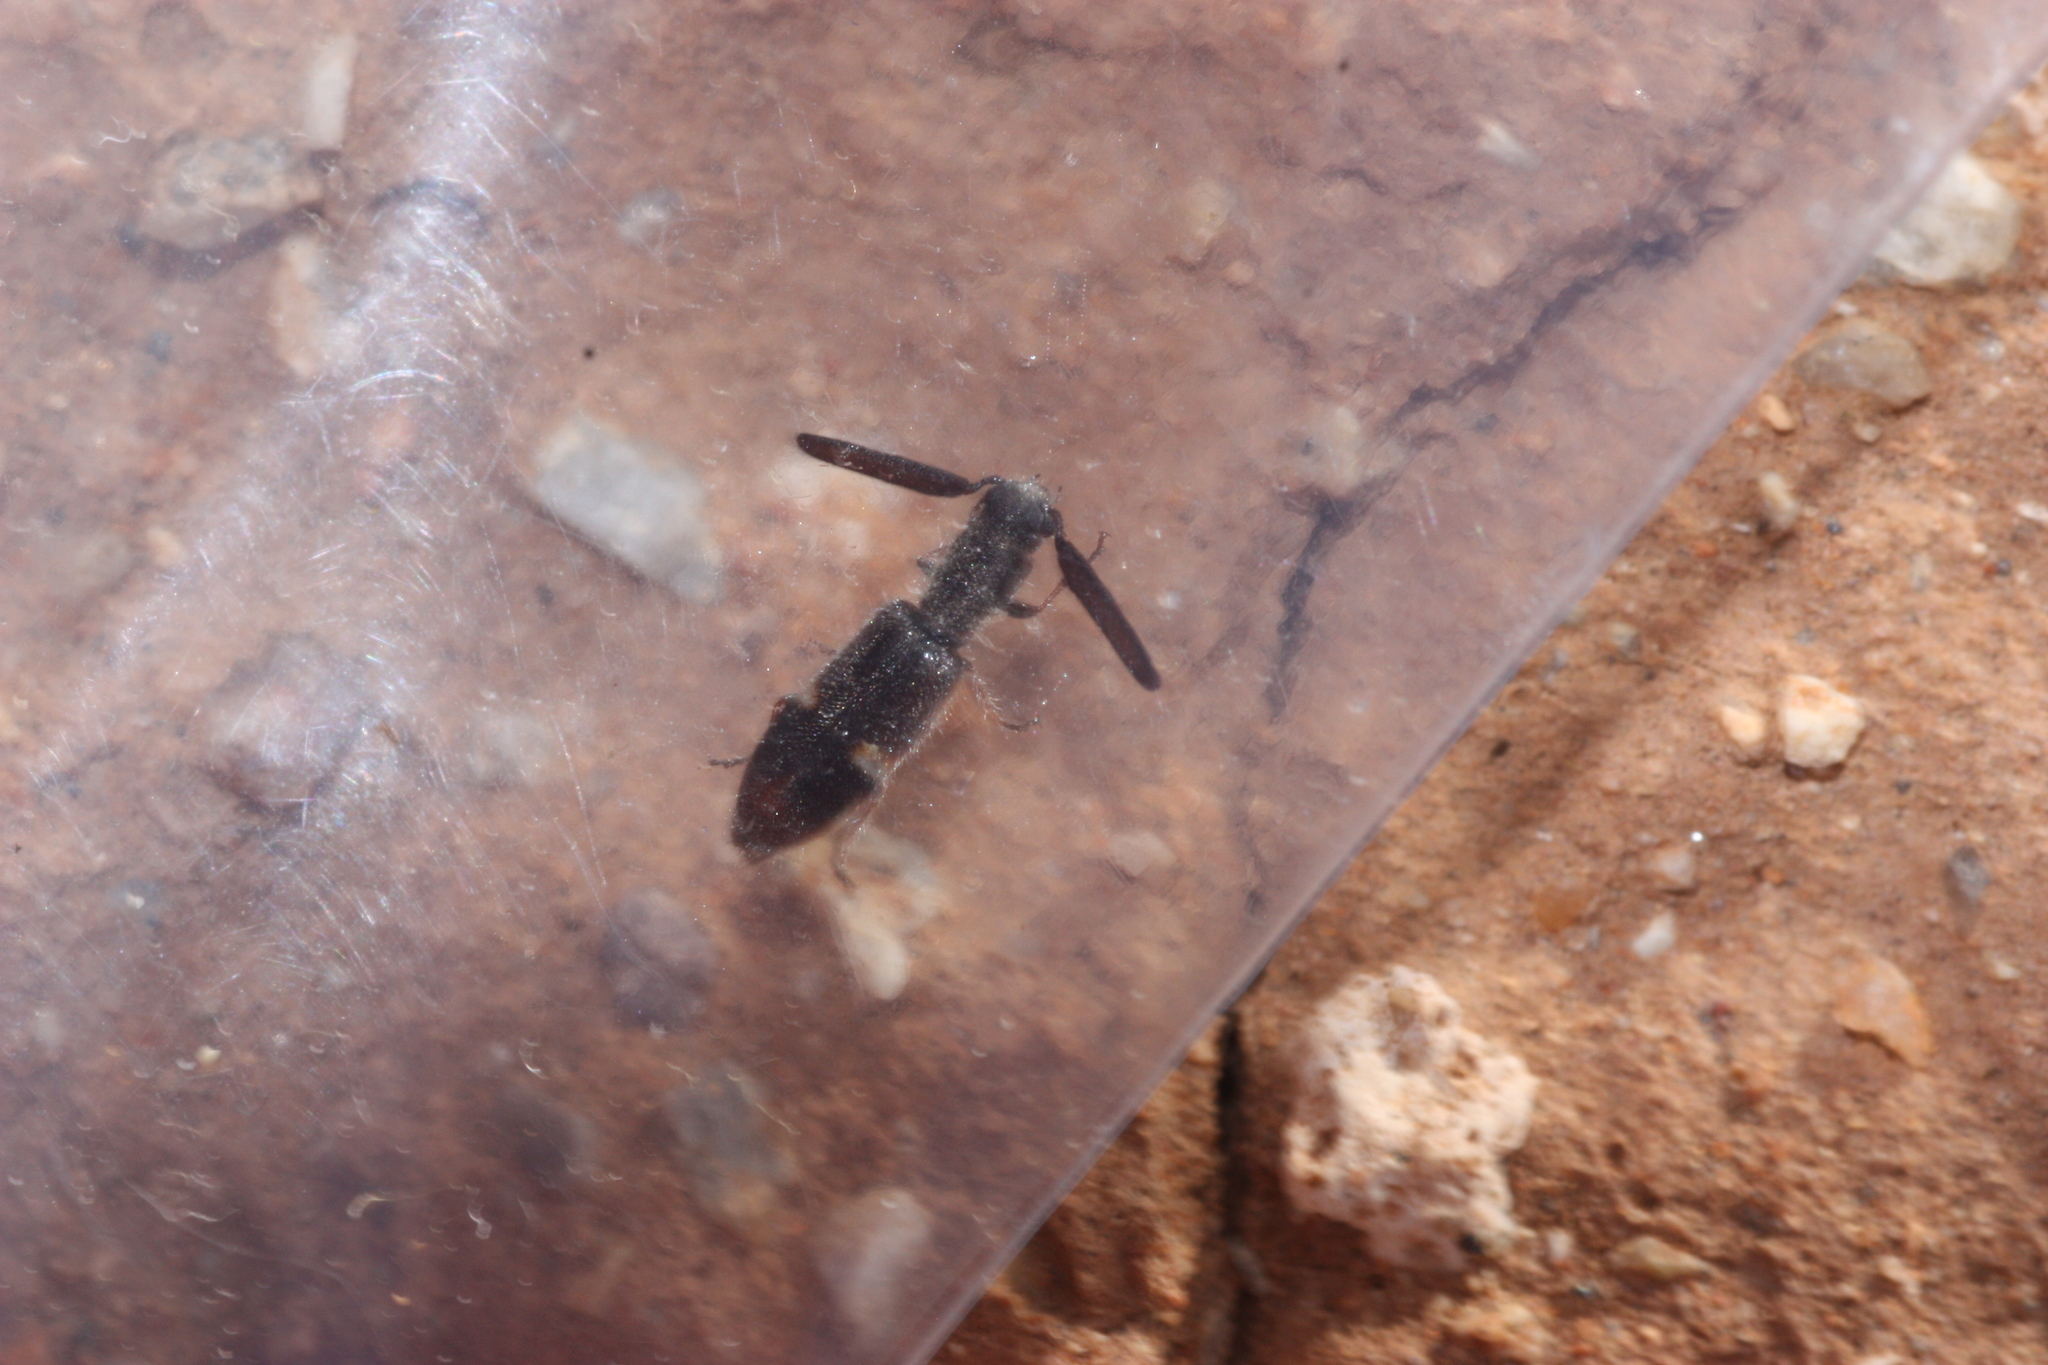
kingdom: Animalia
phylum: Arthropoda
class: Insecta
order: Coleoptera
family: Cleridae
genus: Monophylla
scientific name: Monophylla californica
